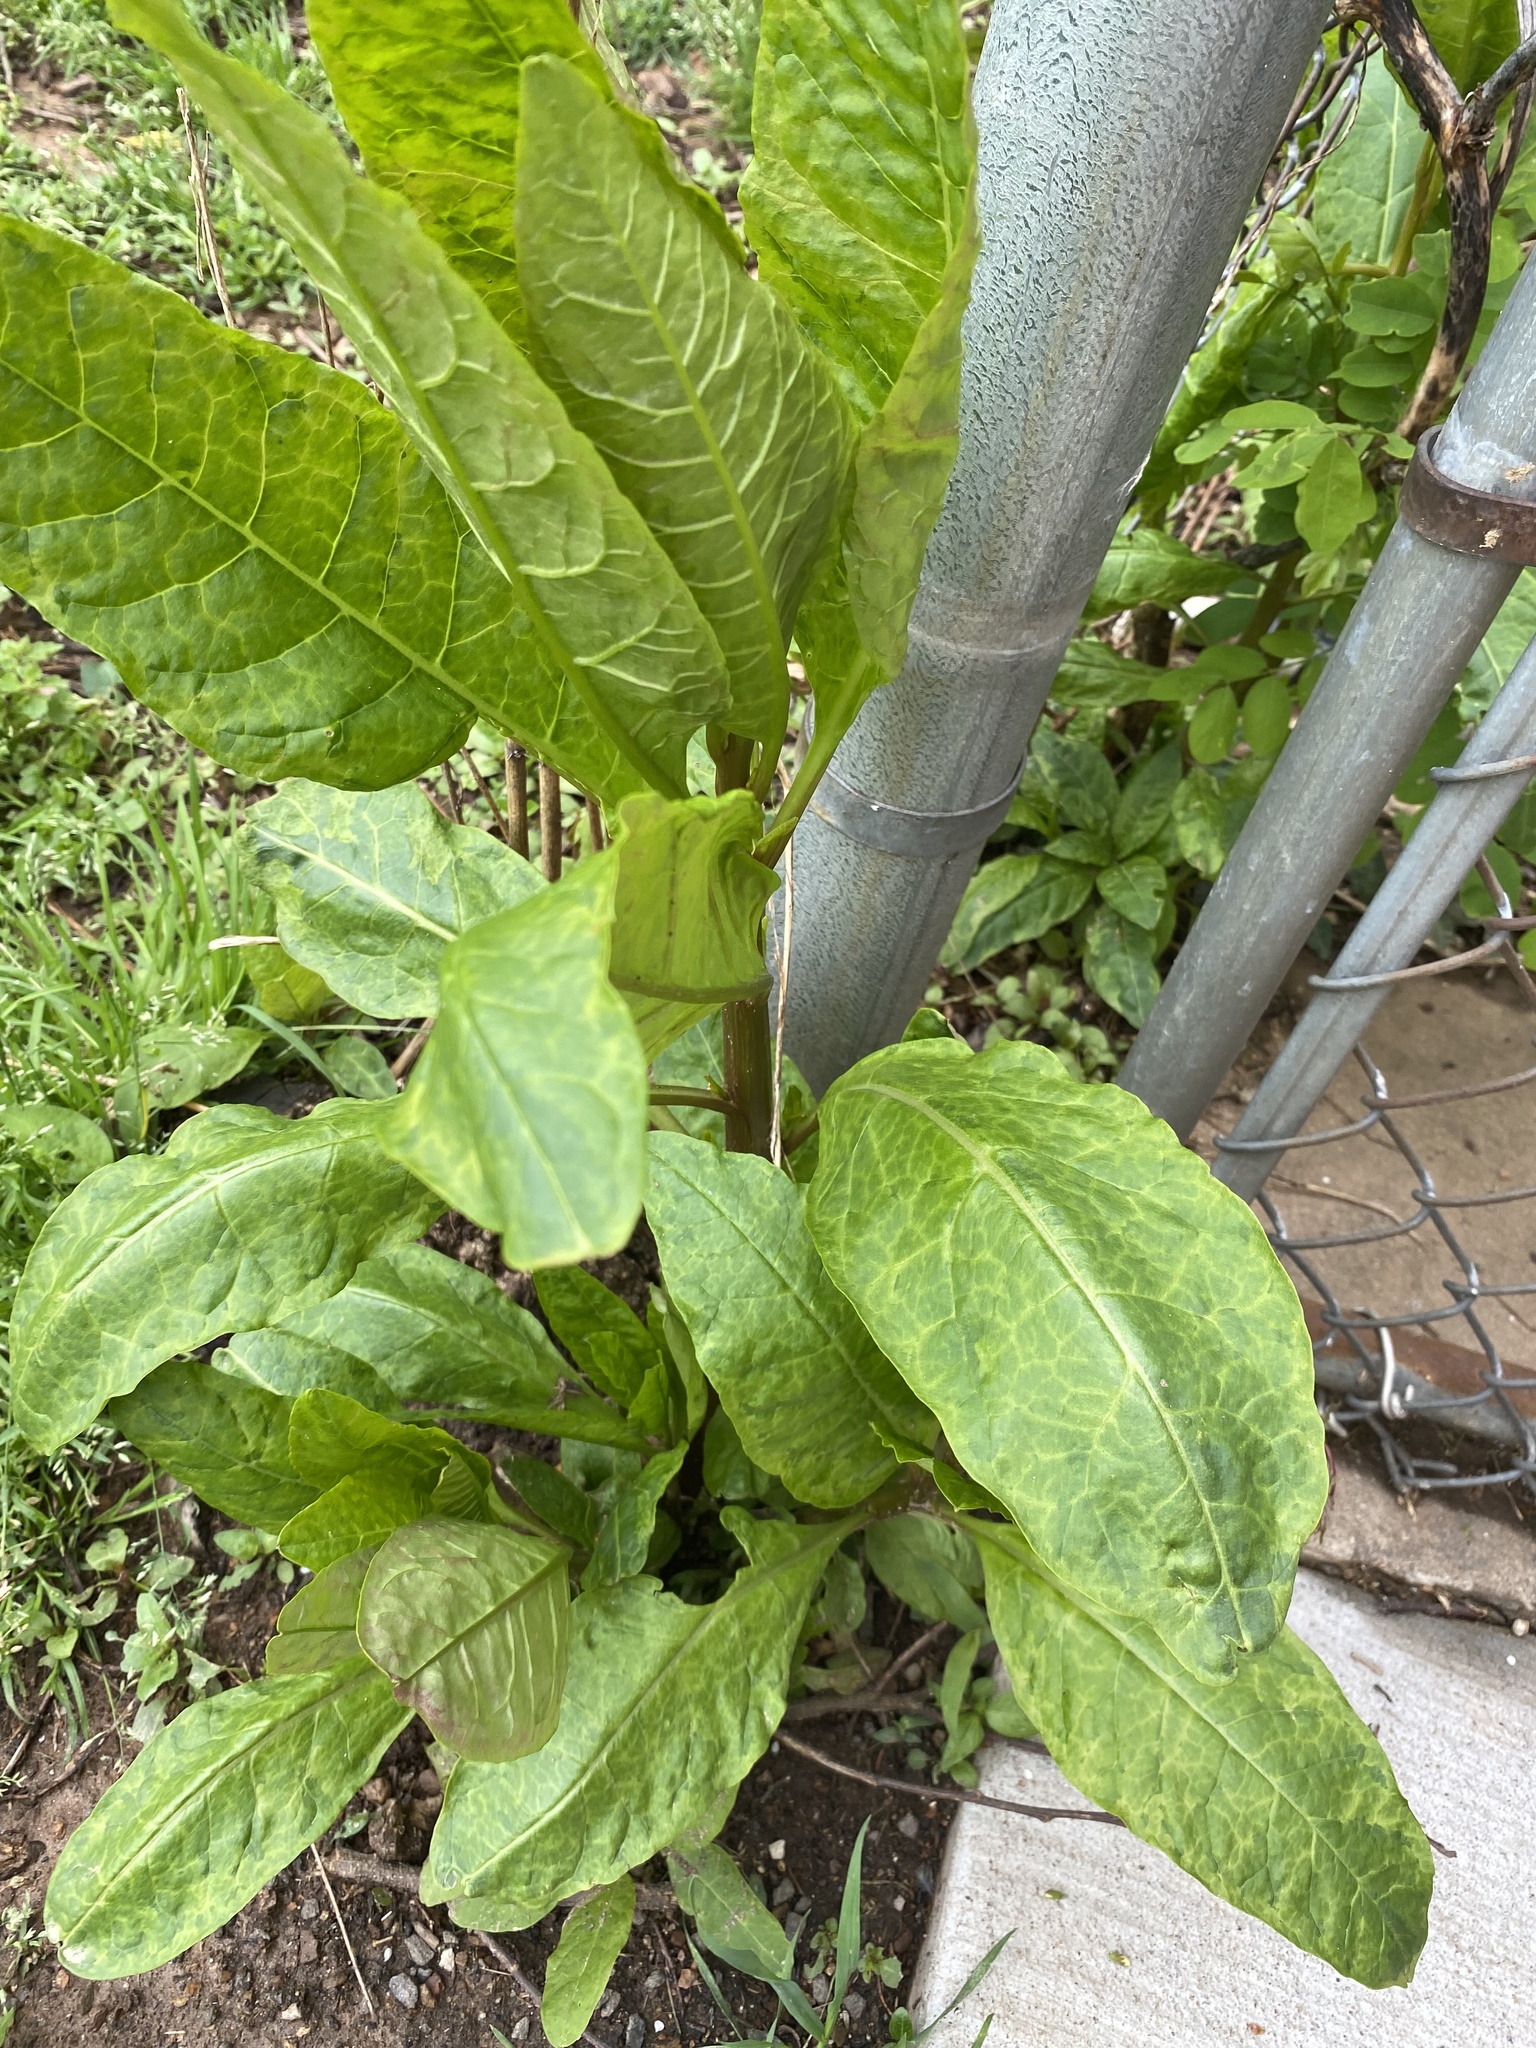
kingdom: Plantae
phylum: Tracheophyta
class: Magnoliopsida
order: Caryophyllales
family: Phytolaccaceae
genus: Phytolacca
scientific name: Phytolacca americana
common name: American pokeweed
